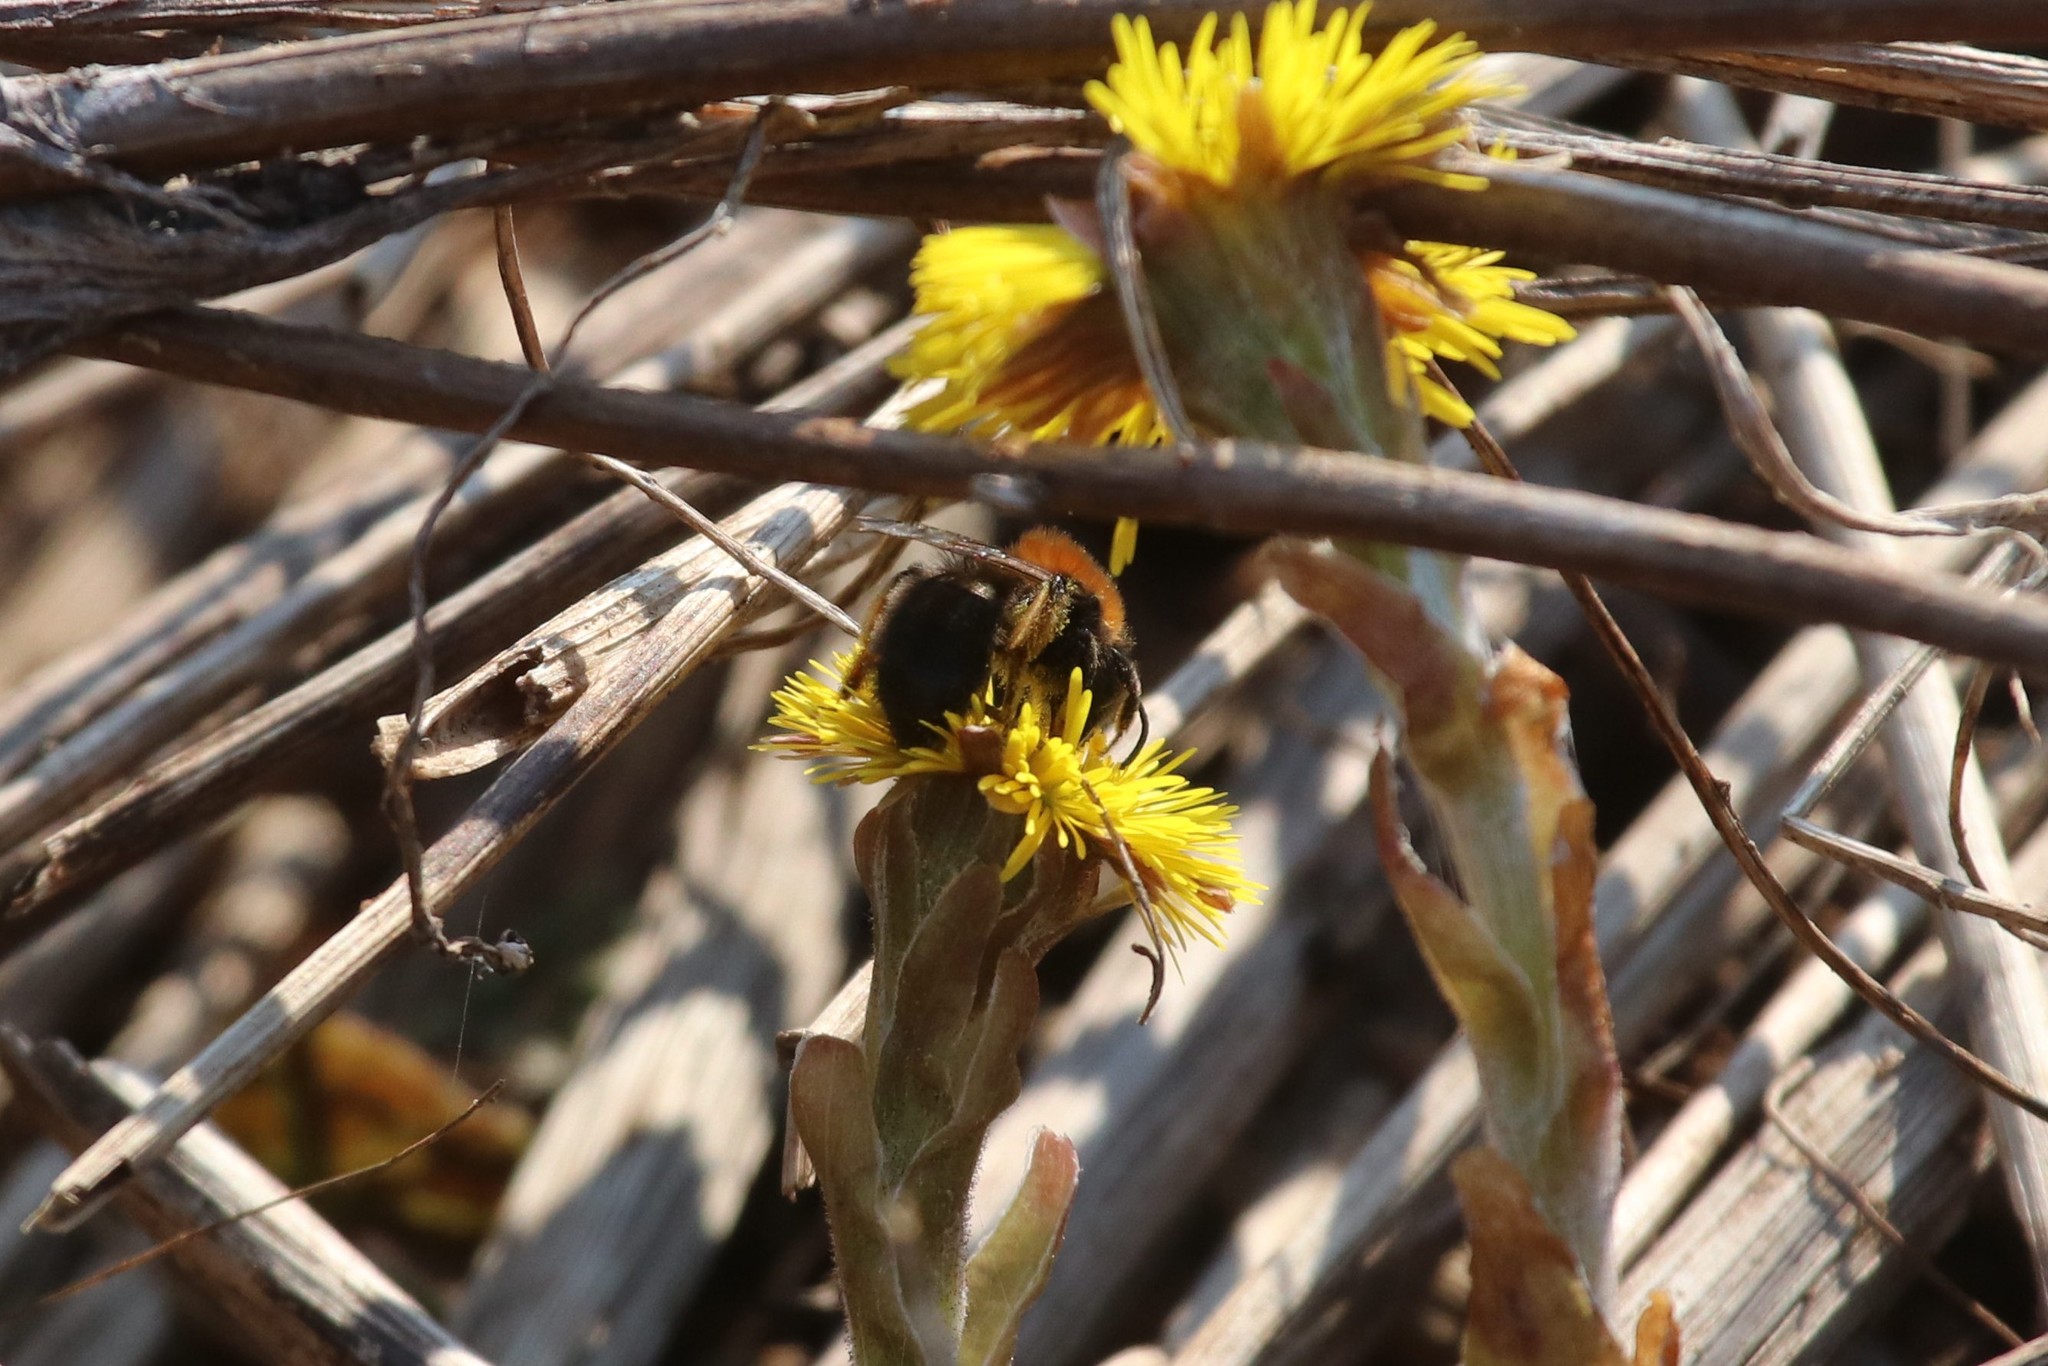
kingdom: Animalia
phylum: Arthropoda
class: Insecta
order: Hymenoptera
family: Andrenidae
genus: Andrena
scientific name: Andrena clarkella
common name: Clarke's mining bee
